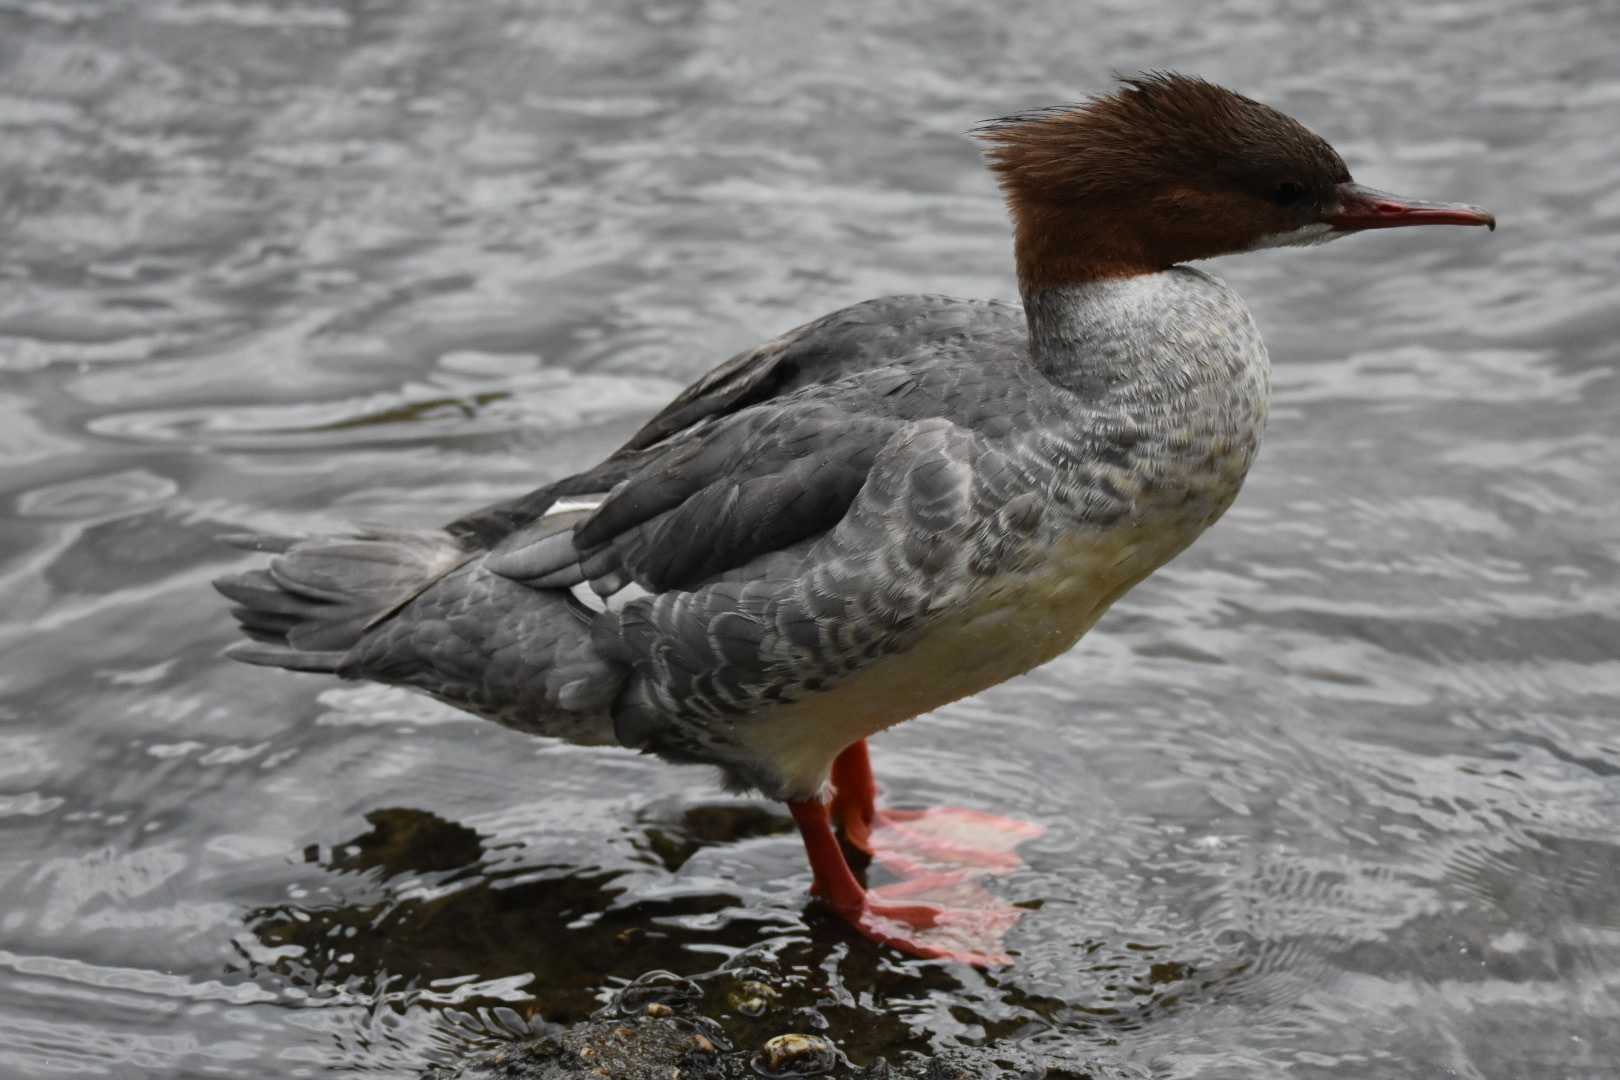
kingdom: Animalia
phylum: Chordata
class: Aves
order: Anseriformes
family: Anatidae
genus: Mergus
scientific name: Mergus merganser
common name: Common merganser
